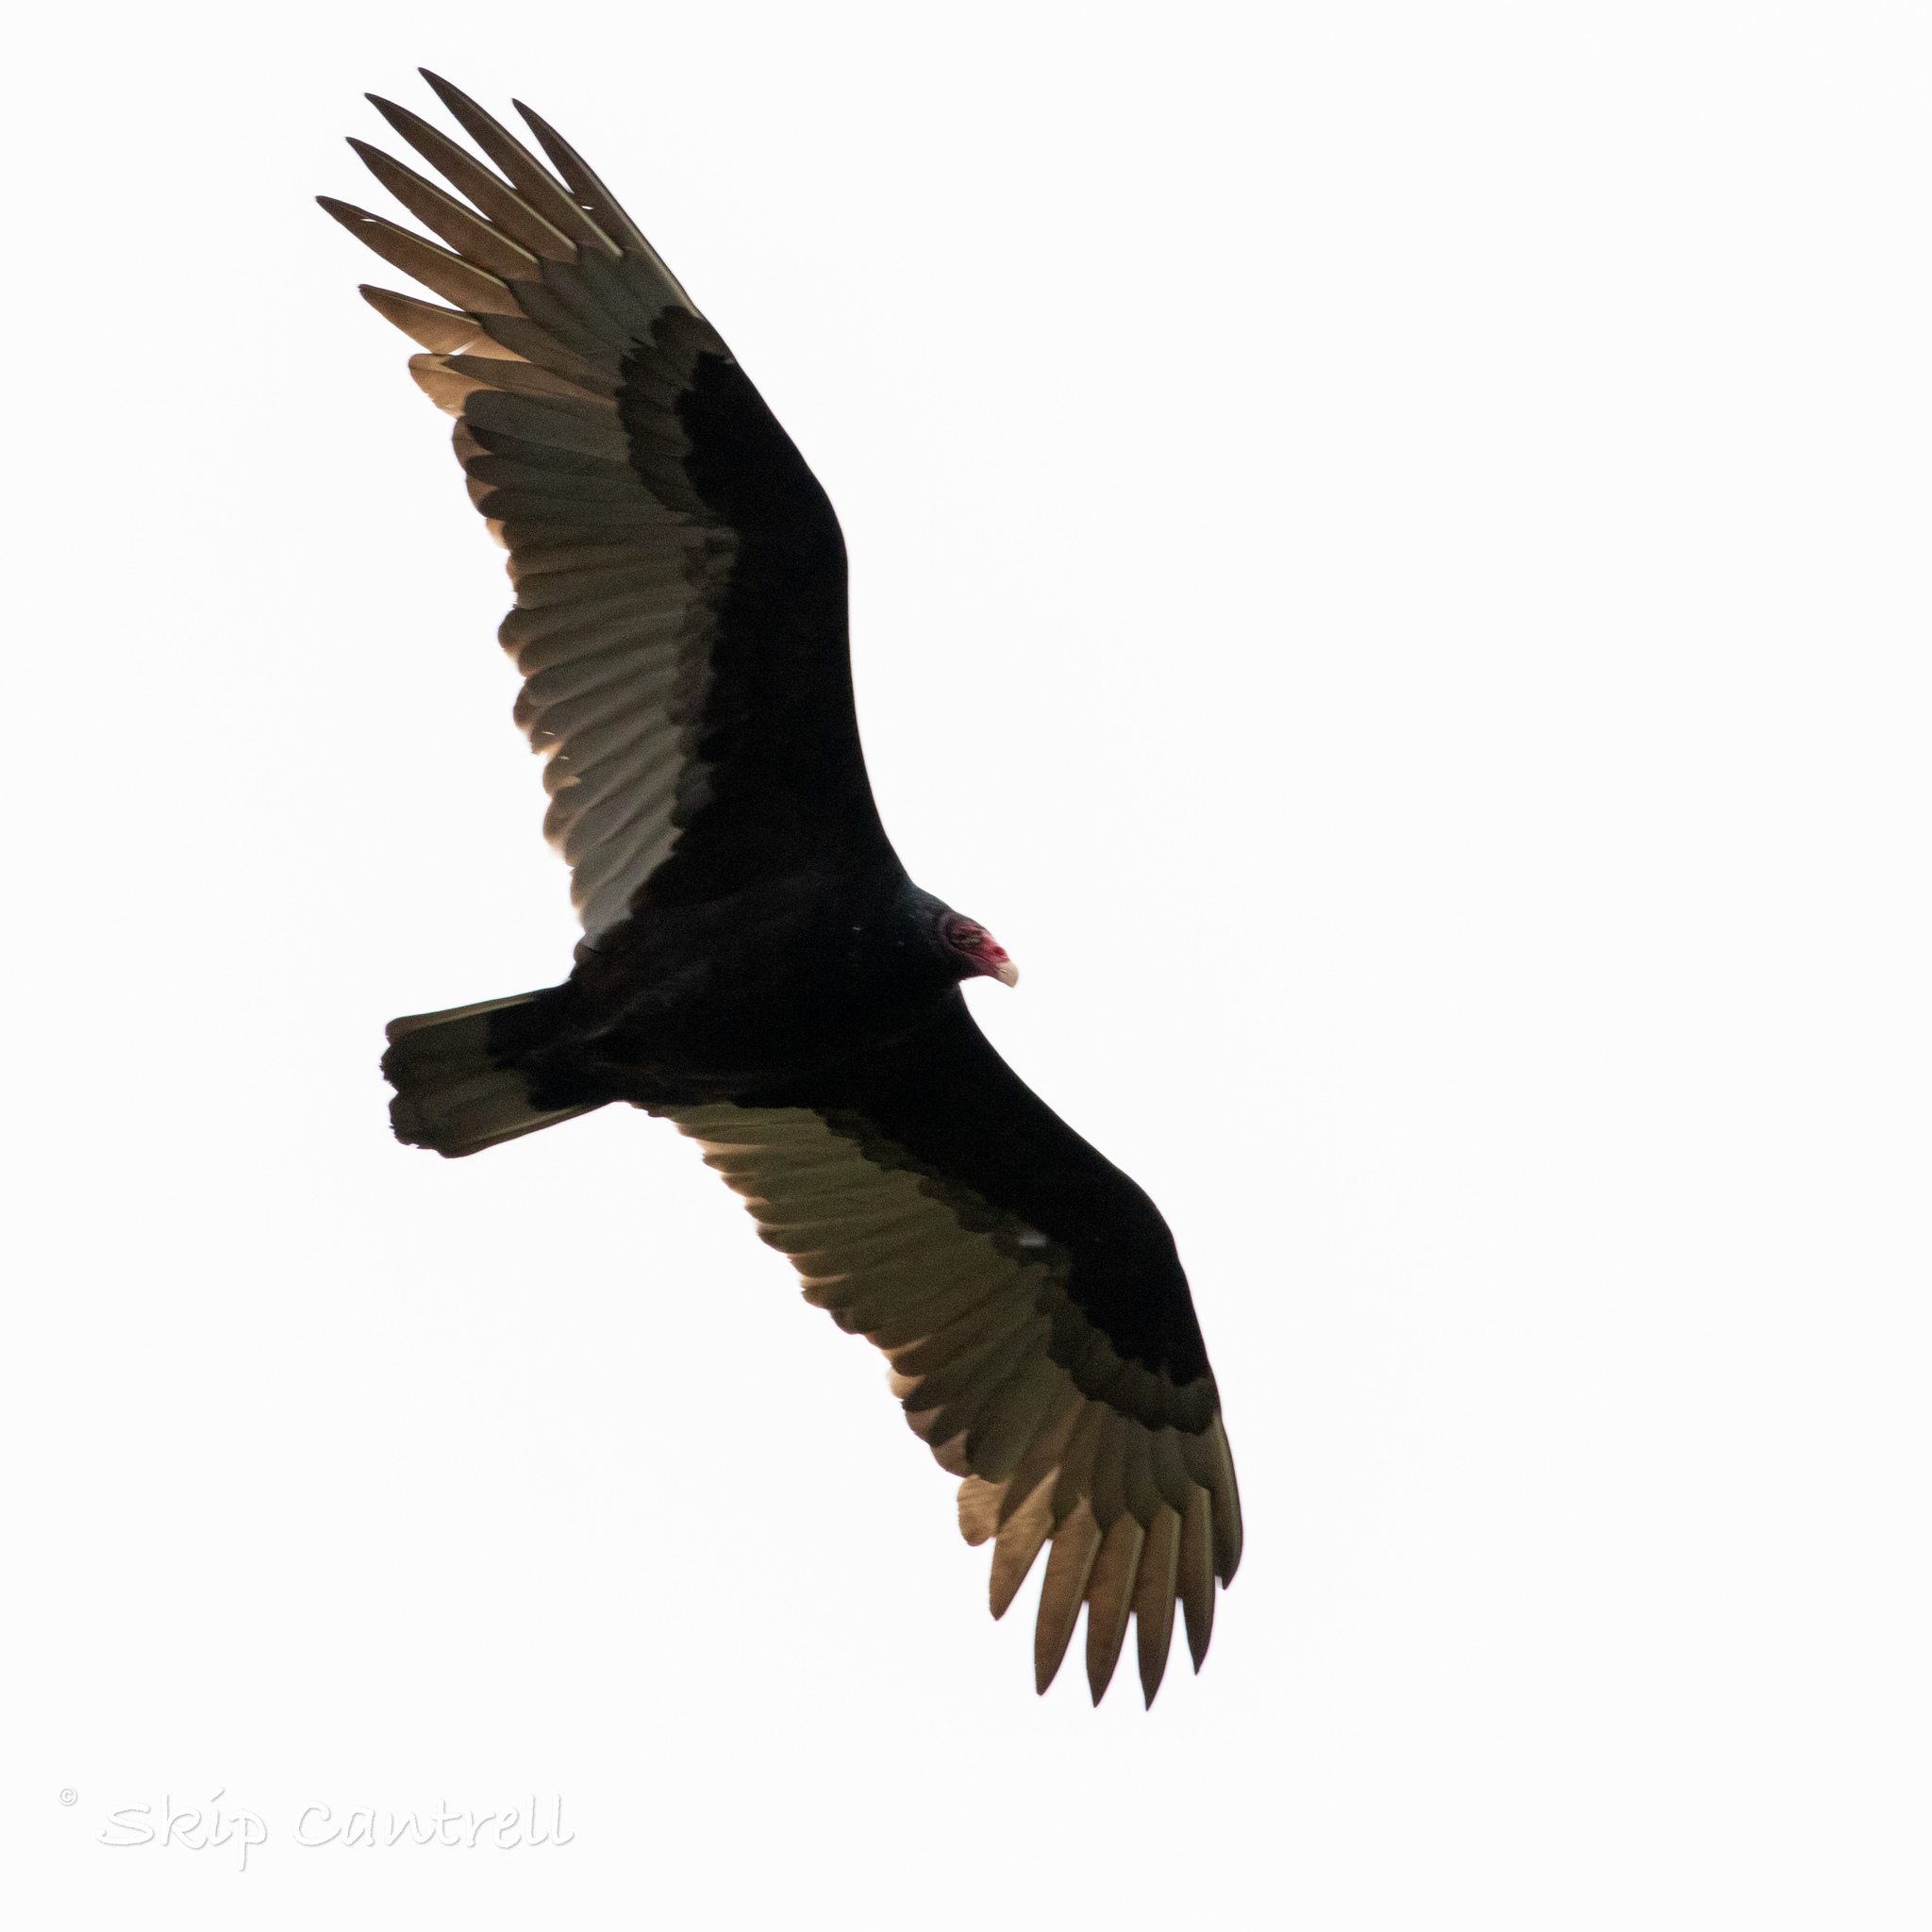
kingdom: Animalia
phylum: Chordata
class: Aves
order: Accipitriformes
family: Cathartidae
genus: Cathartes
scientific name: Cathartes aura
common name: Turkey vulture
